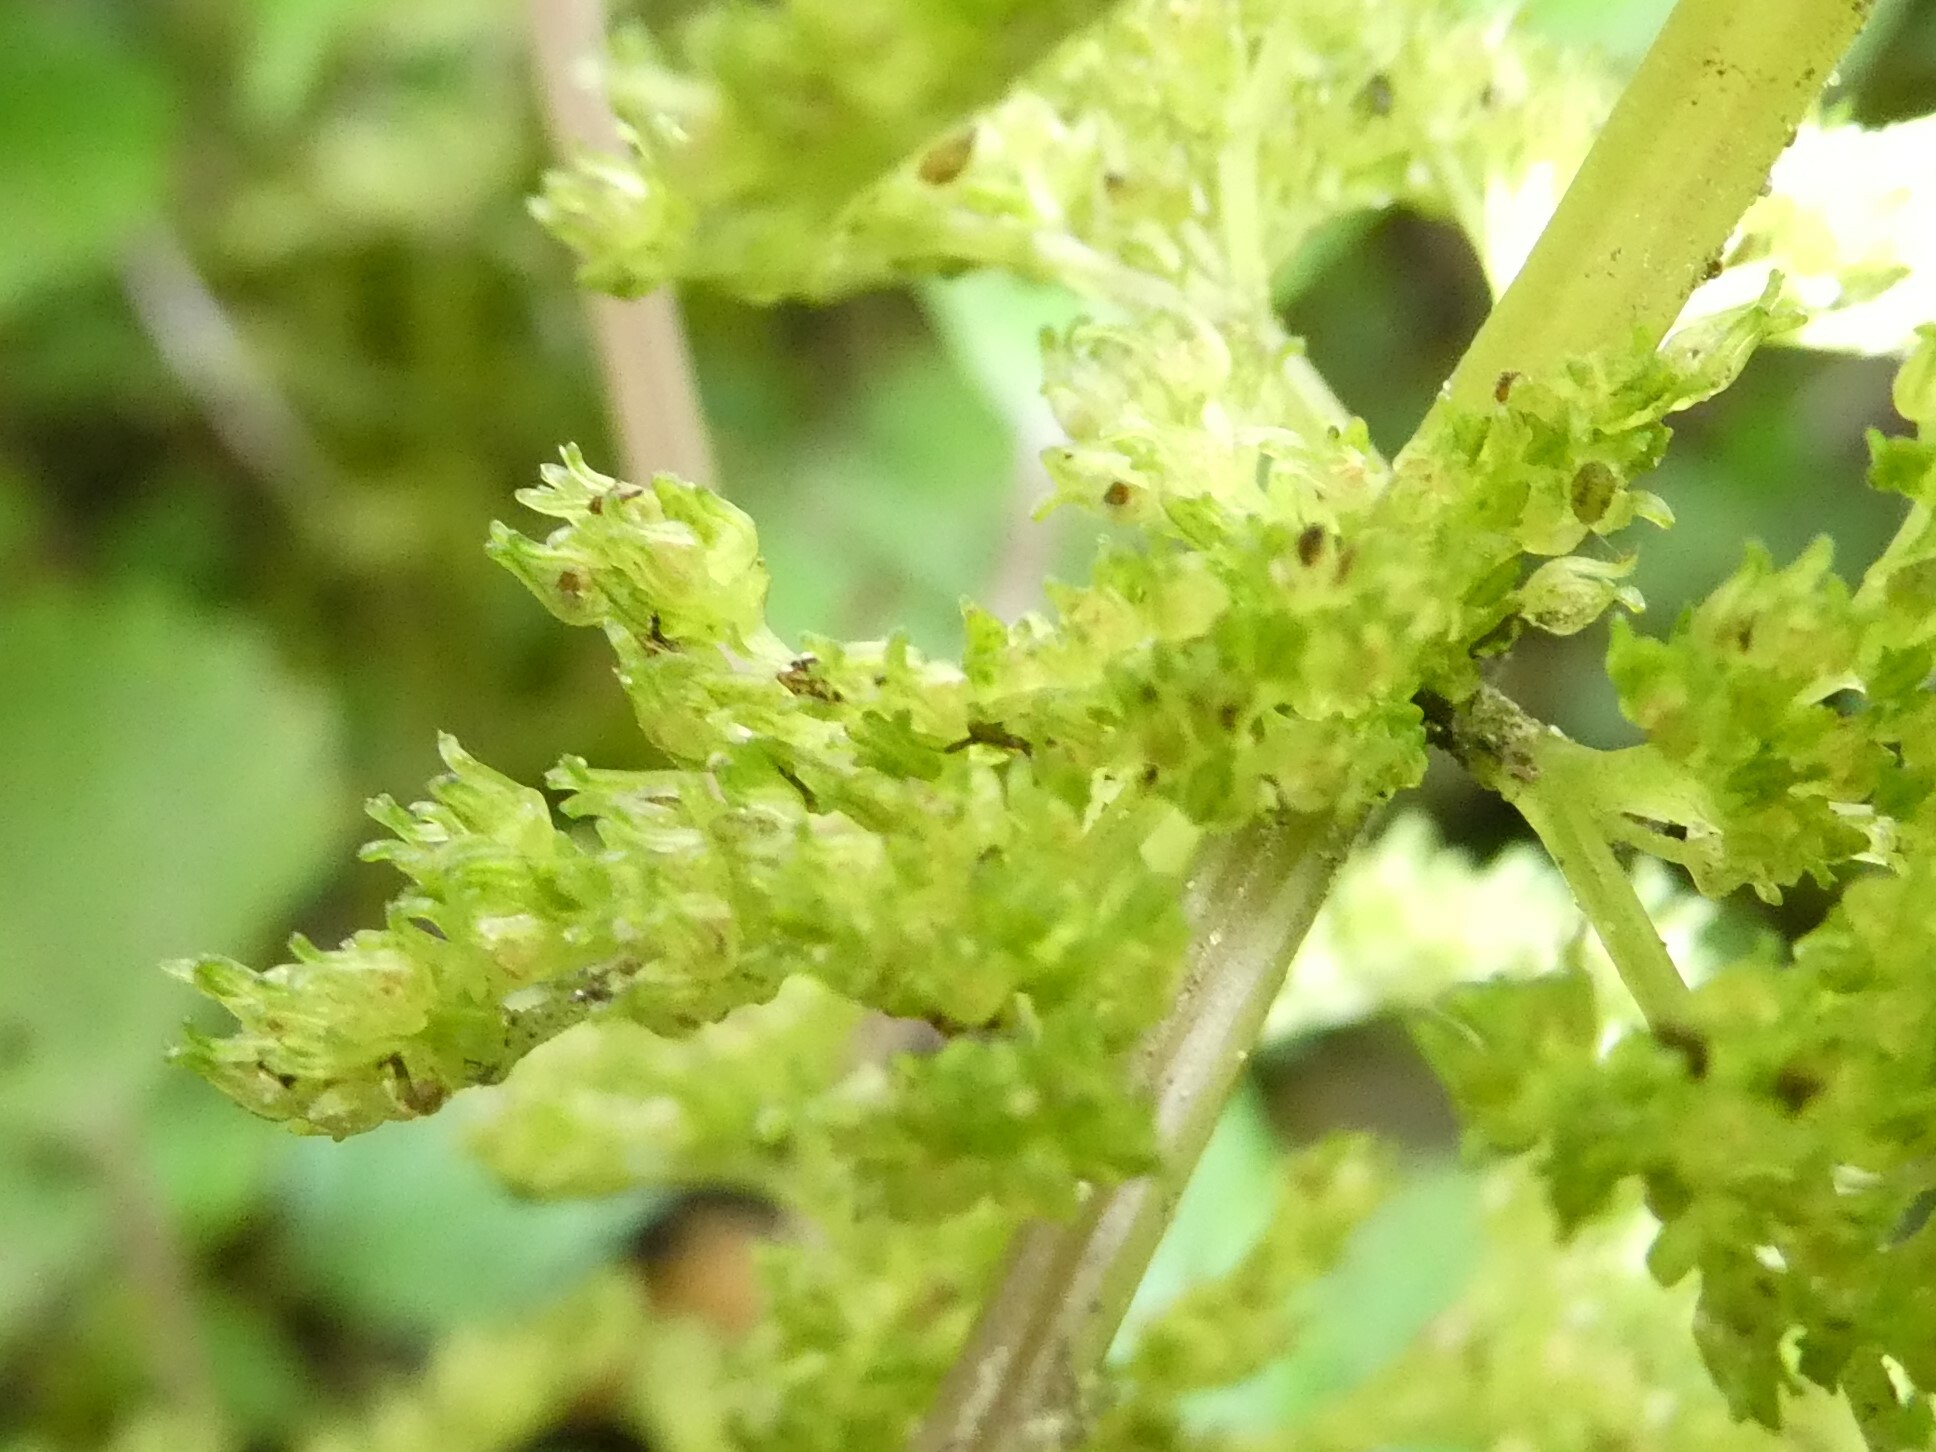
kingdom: Plantae
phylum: Tracheophyta
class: Magnoliopsida
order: Rosales
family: Urticaceae
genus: Pilea
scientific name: Pilea pumila
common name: Clearweed
